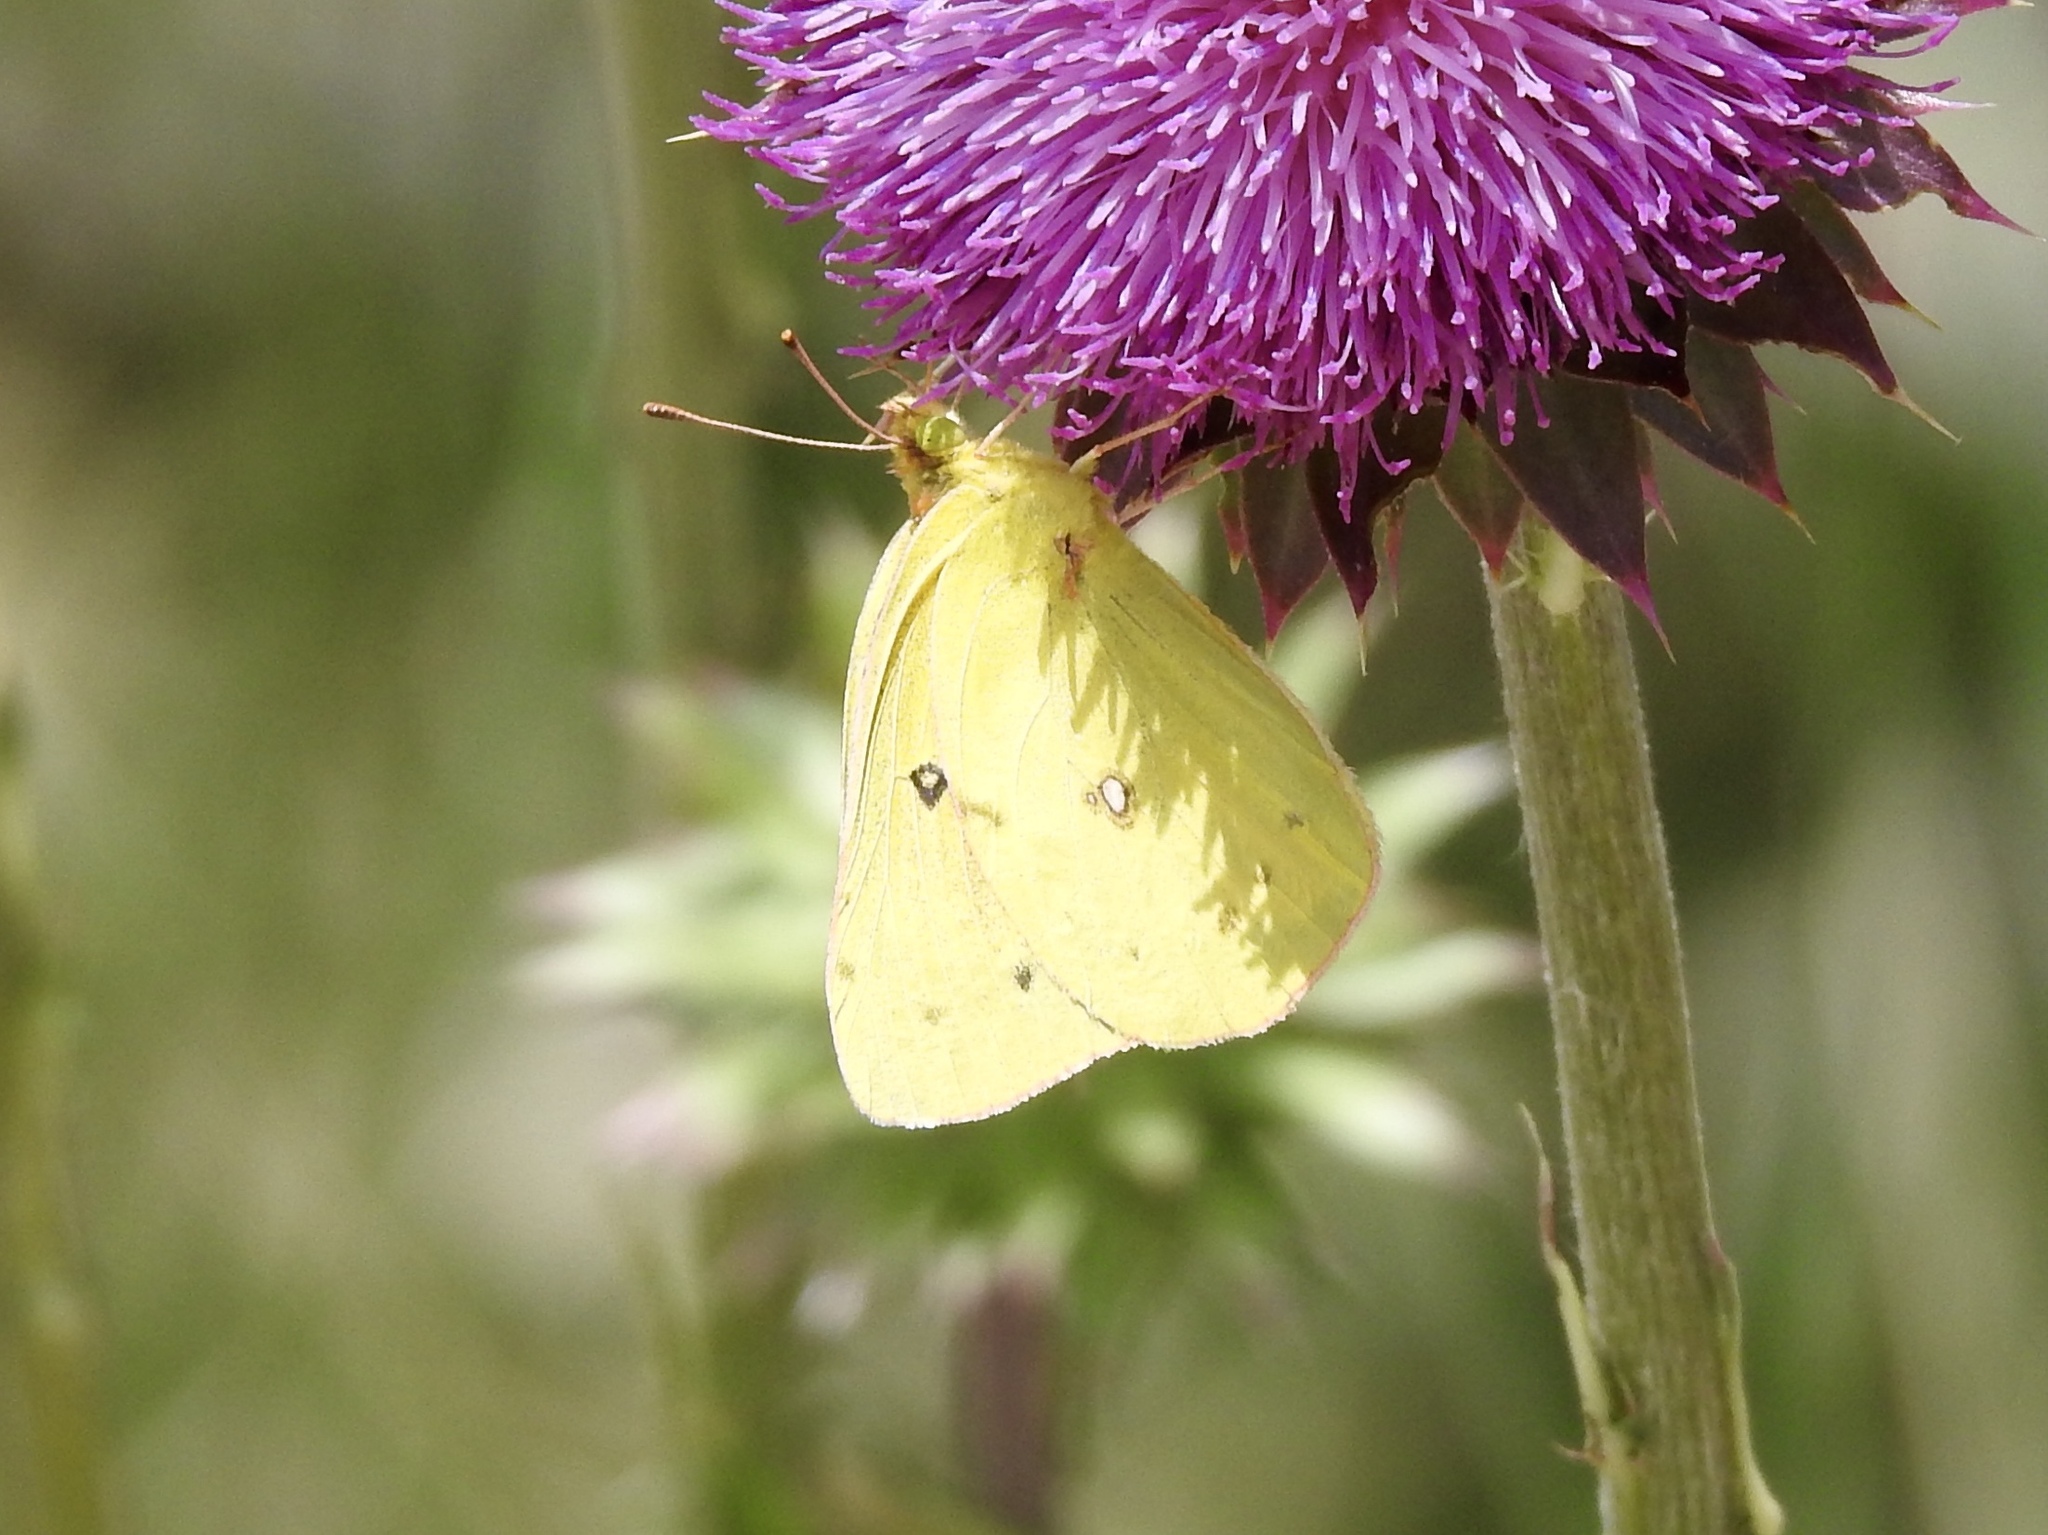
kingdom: Animalia
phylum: Arthropoda
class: Insecta
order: Lepidoptera
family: Pieridae
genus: Colias
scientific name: Colias eurytheme
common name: Alfalfa butterfly
